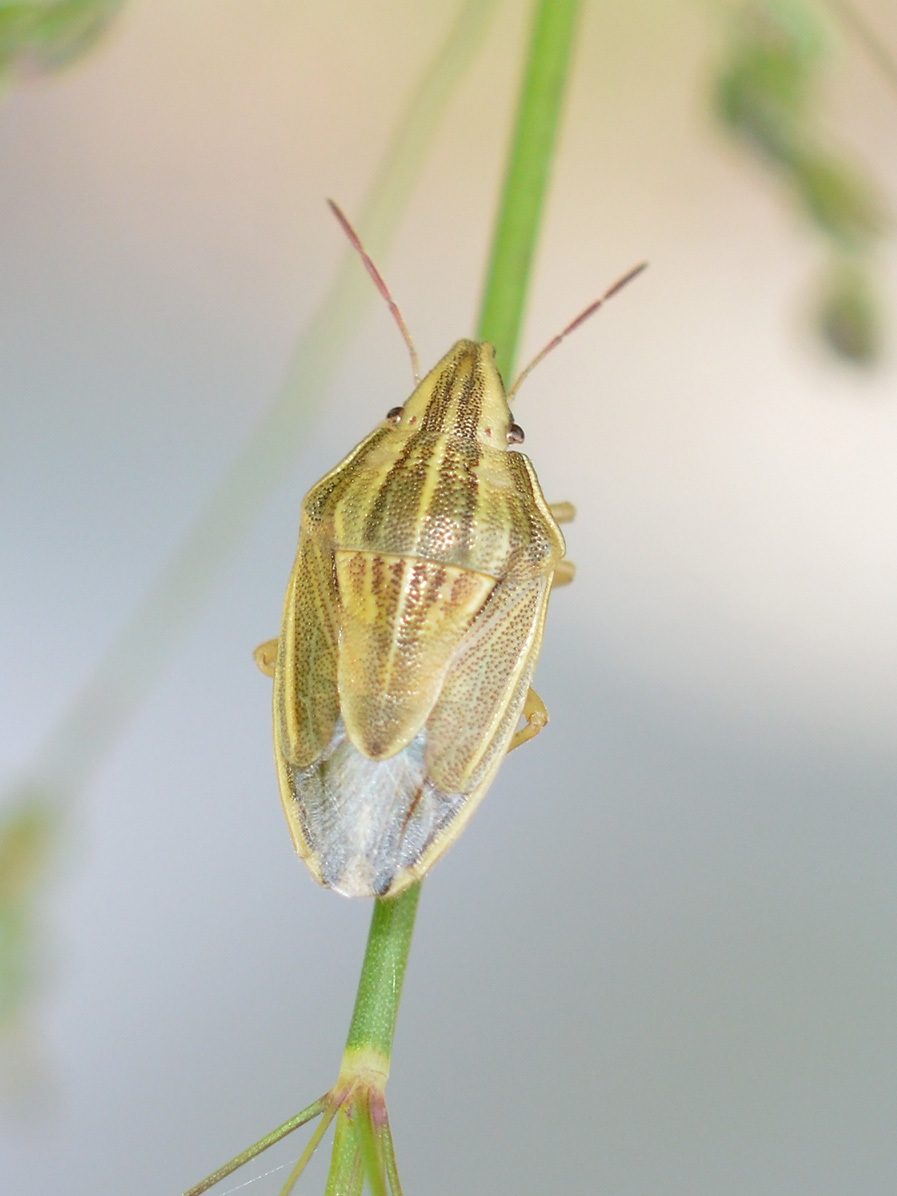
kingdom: Animalia
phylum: Arthropoda
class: Insecta
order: Hemiptera
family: Pentatomidae
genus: Aelia
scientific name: Aelia acuminata
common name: Bishop's mitre
